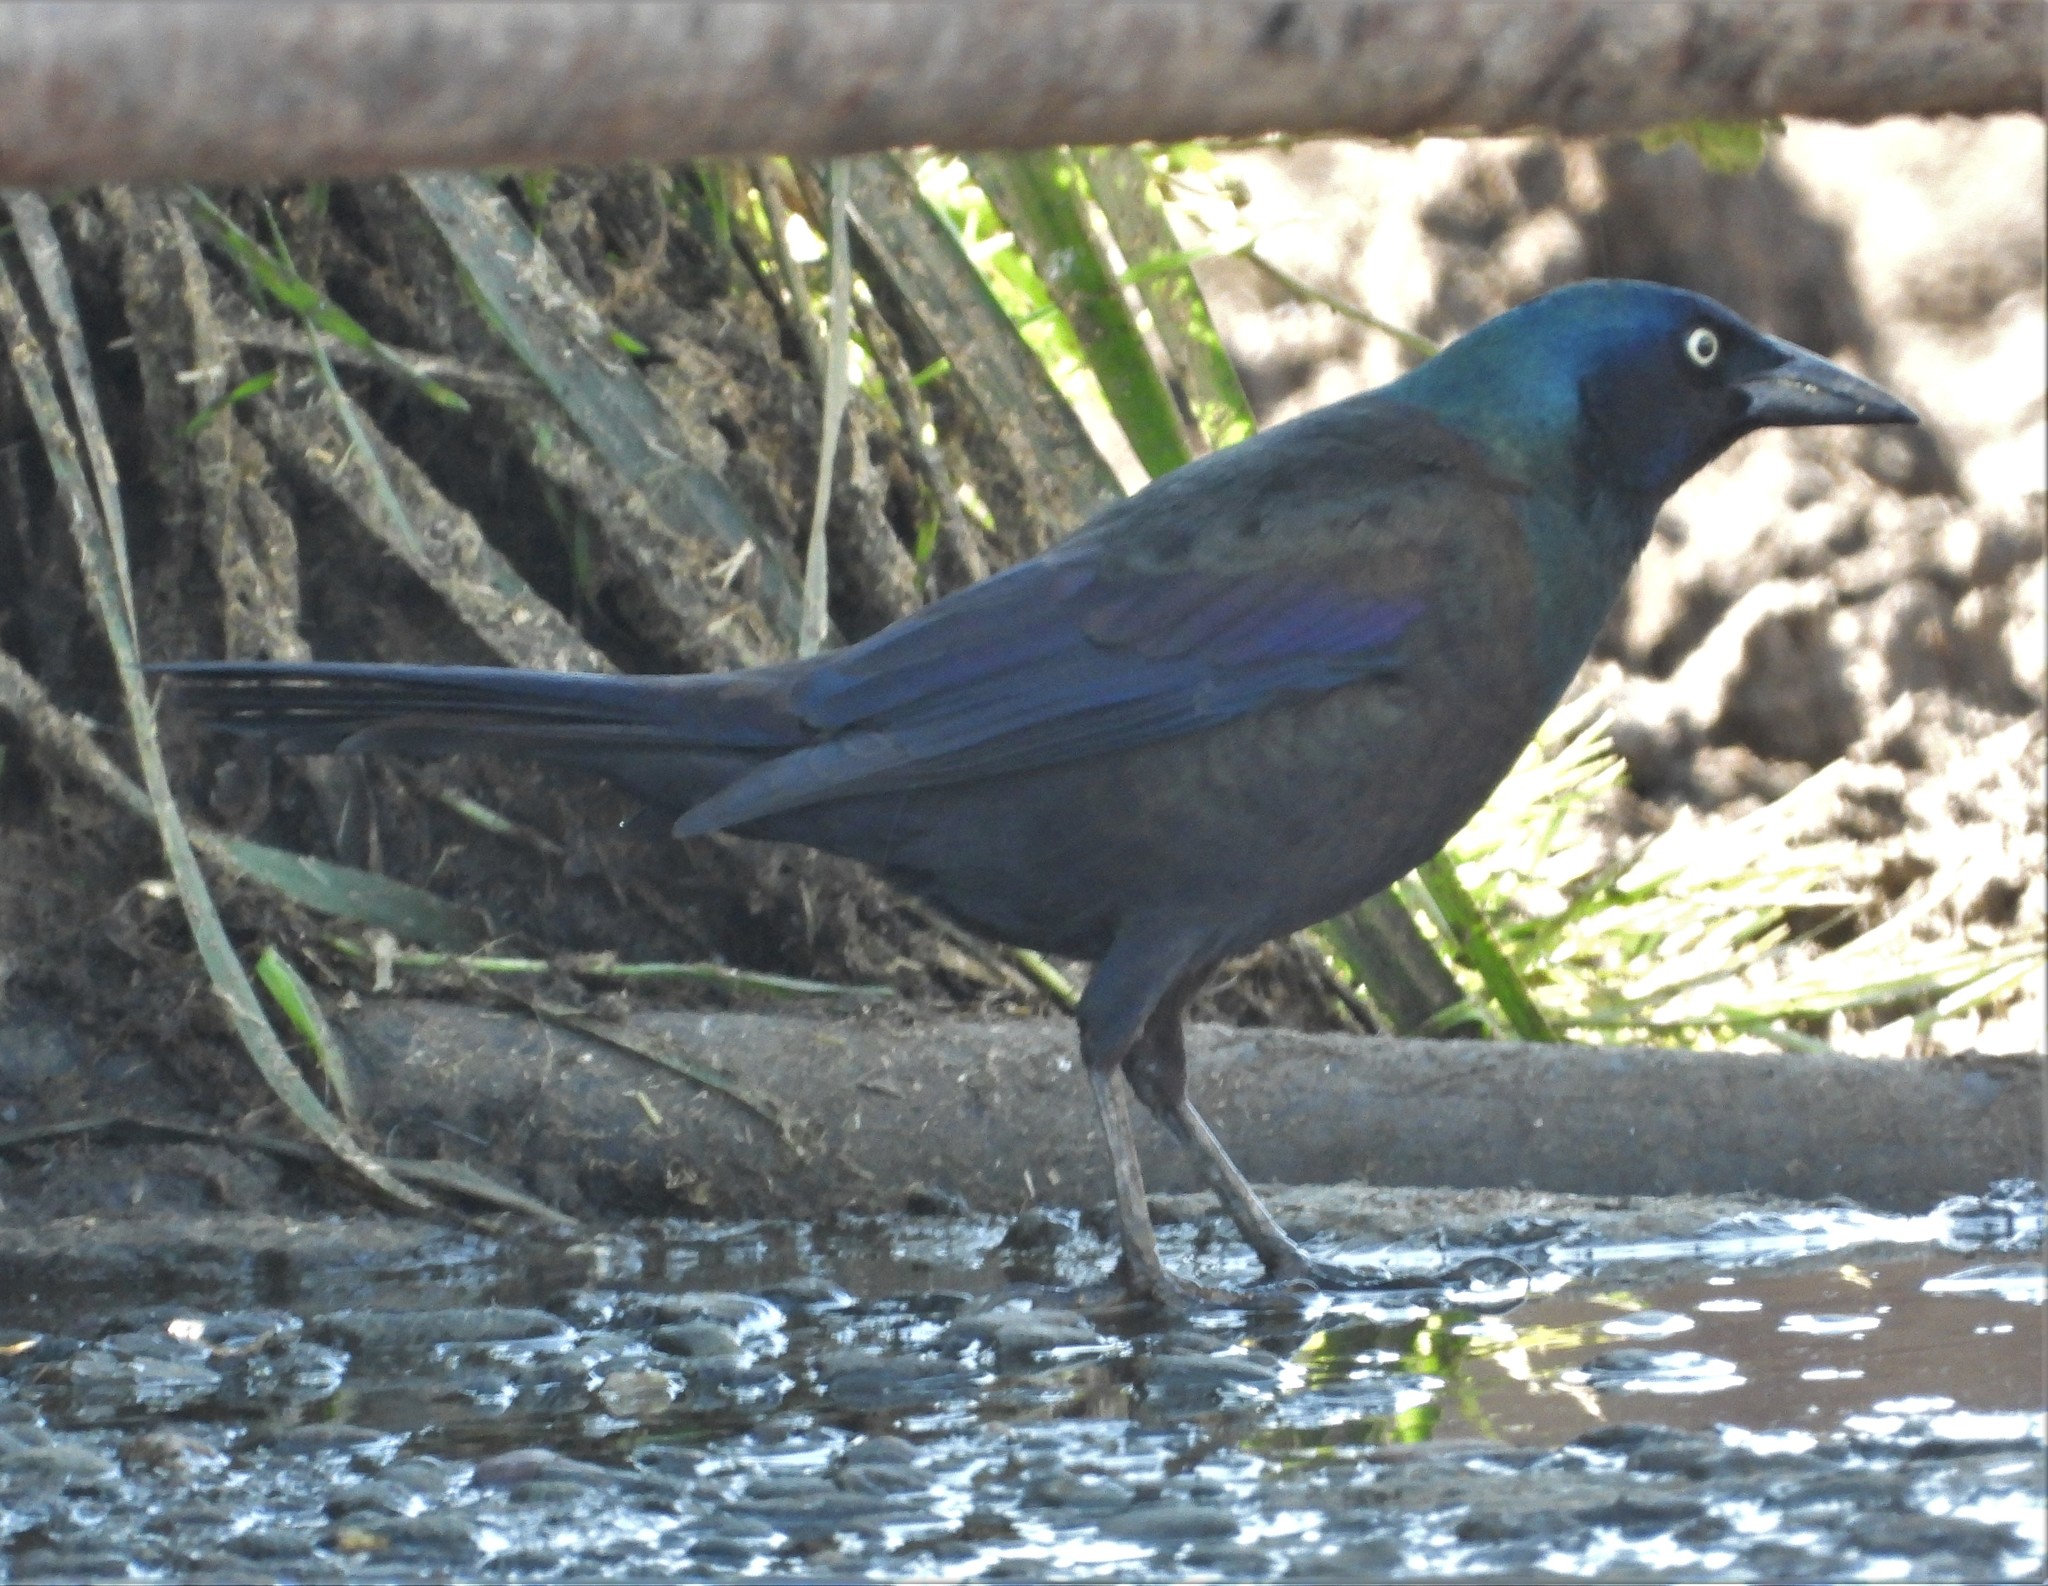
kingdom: Animalia
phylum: Chordata
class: Aves
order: Passeriformes
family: Icteridae
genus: Quiscalus
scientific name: Quiscalus quiscula
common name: Common grackle
